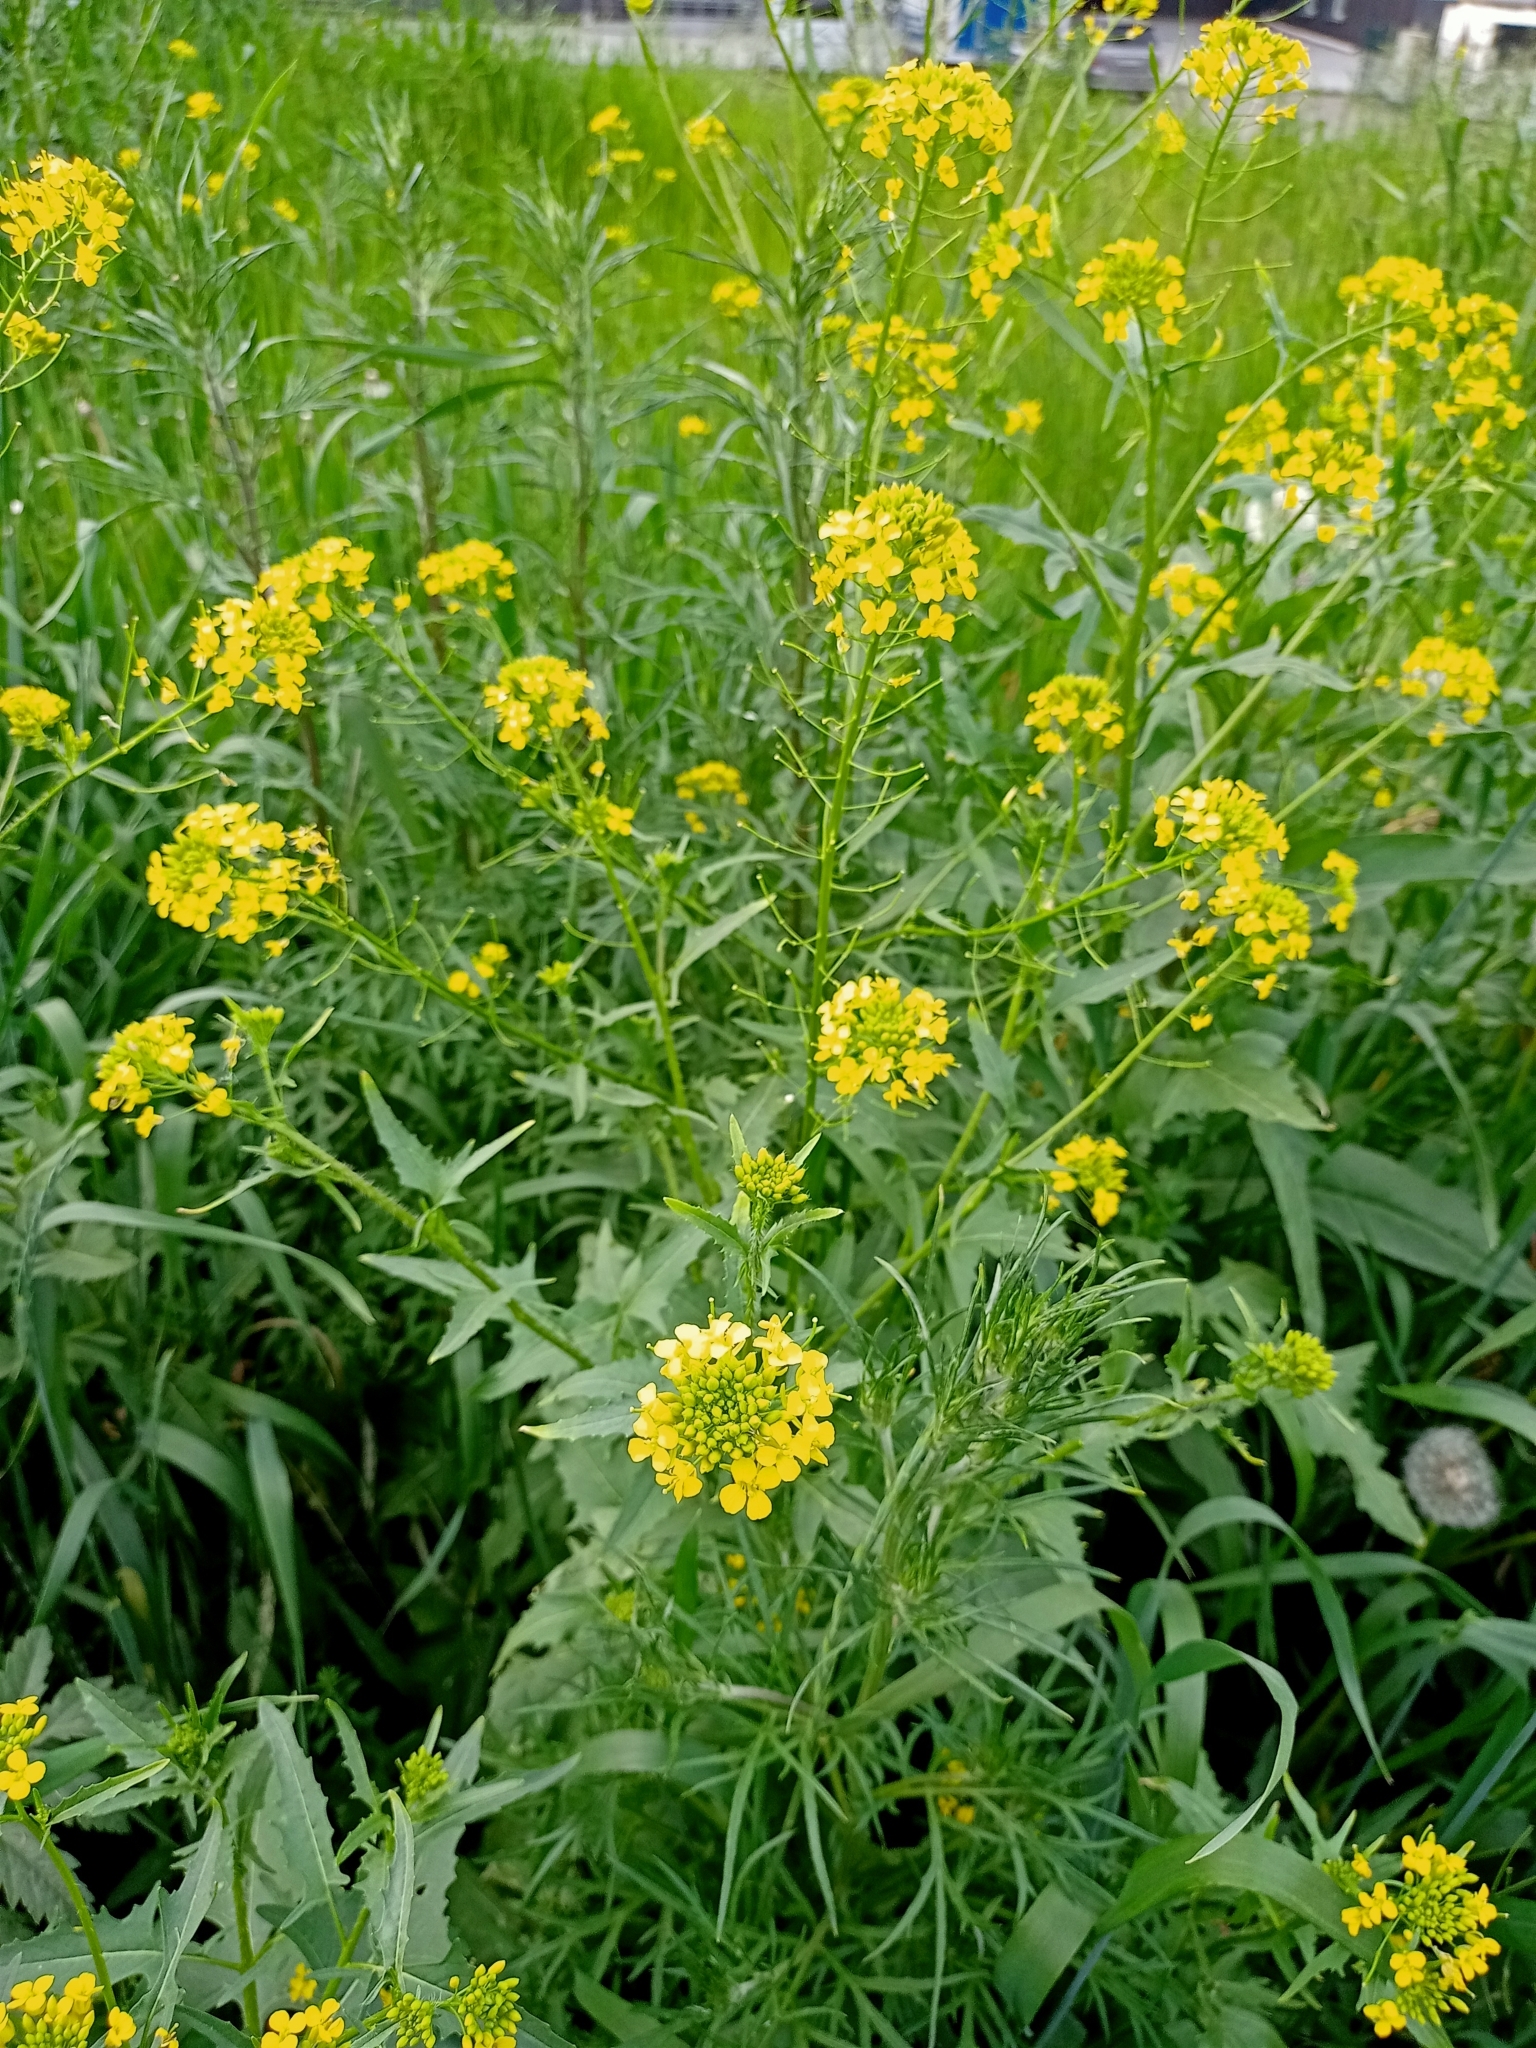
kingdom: Plantae
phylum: Tracheophyta
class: Magnoliopsida
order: Brassicales
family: Brassicaceae
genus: Sisymbrium
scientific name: Sisymbrium loeselii
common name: False london-rocket
